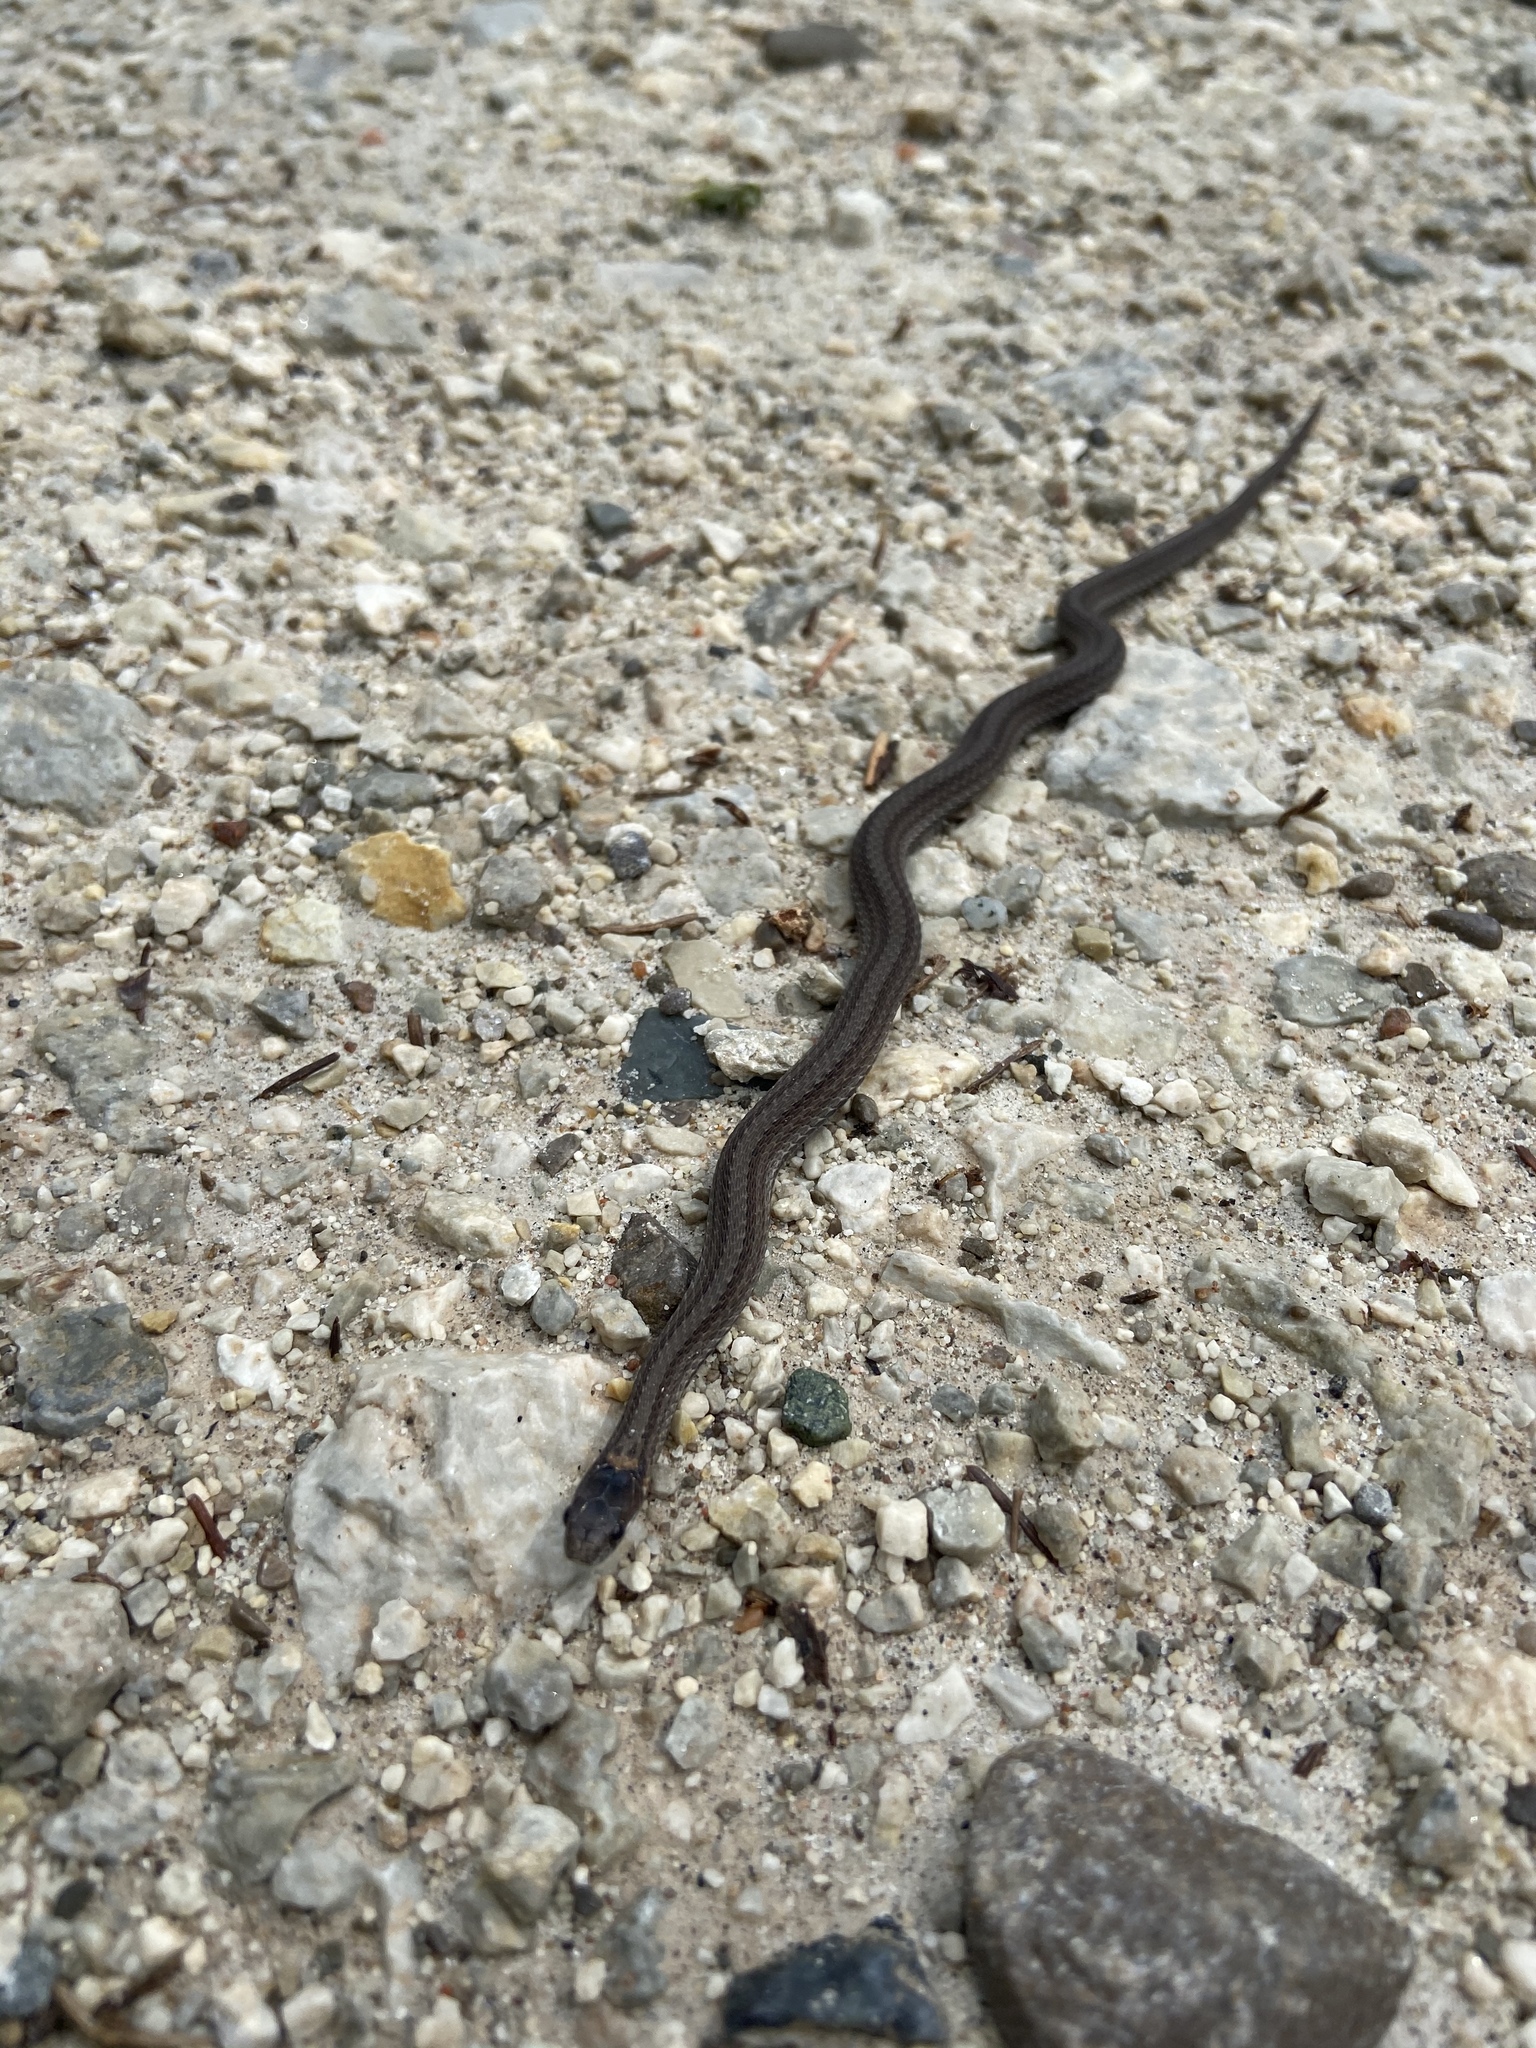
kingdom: Animalia
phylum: Chordata
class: Squamata
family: Colubridae
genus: Storeria
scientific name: Storeria occipitomaculata
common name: Redbelly snake
